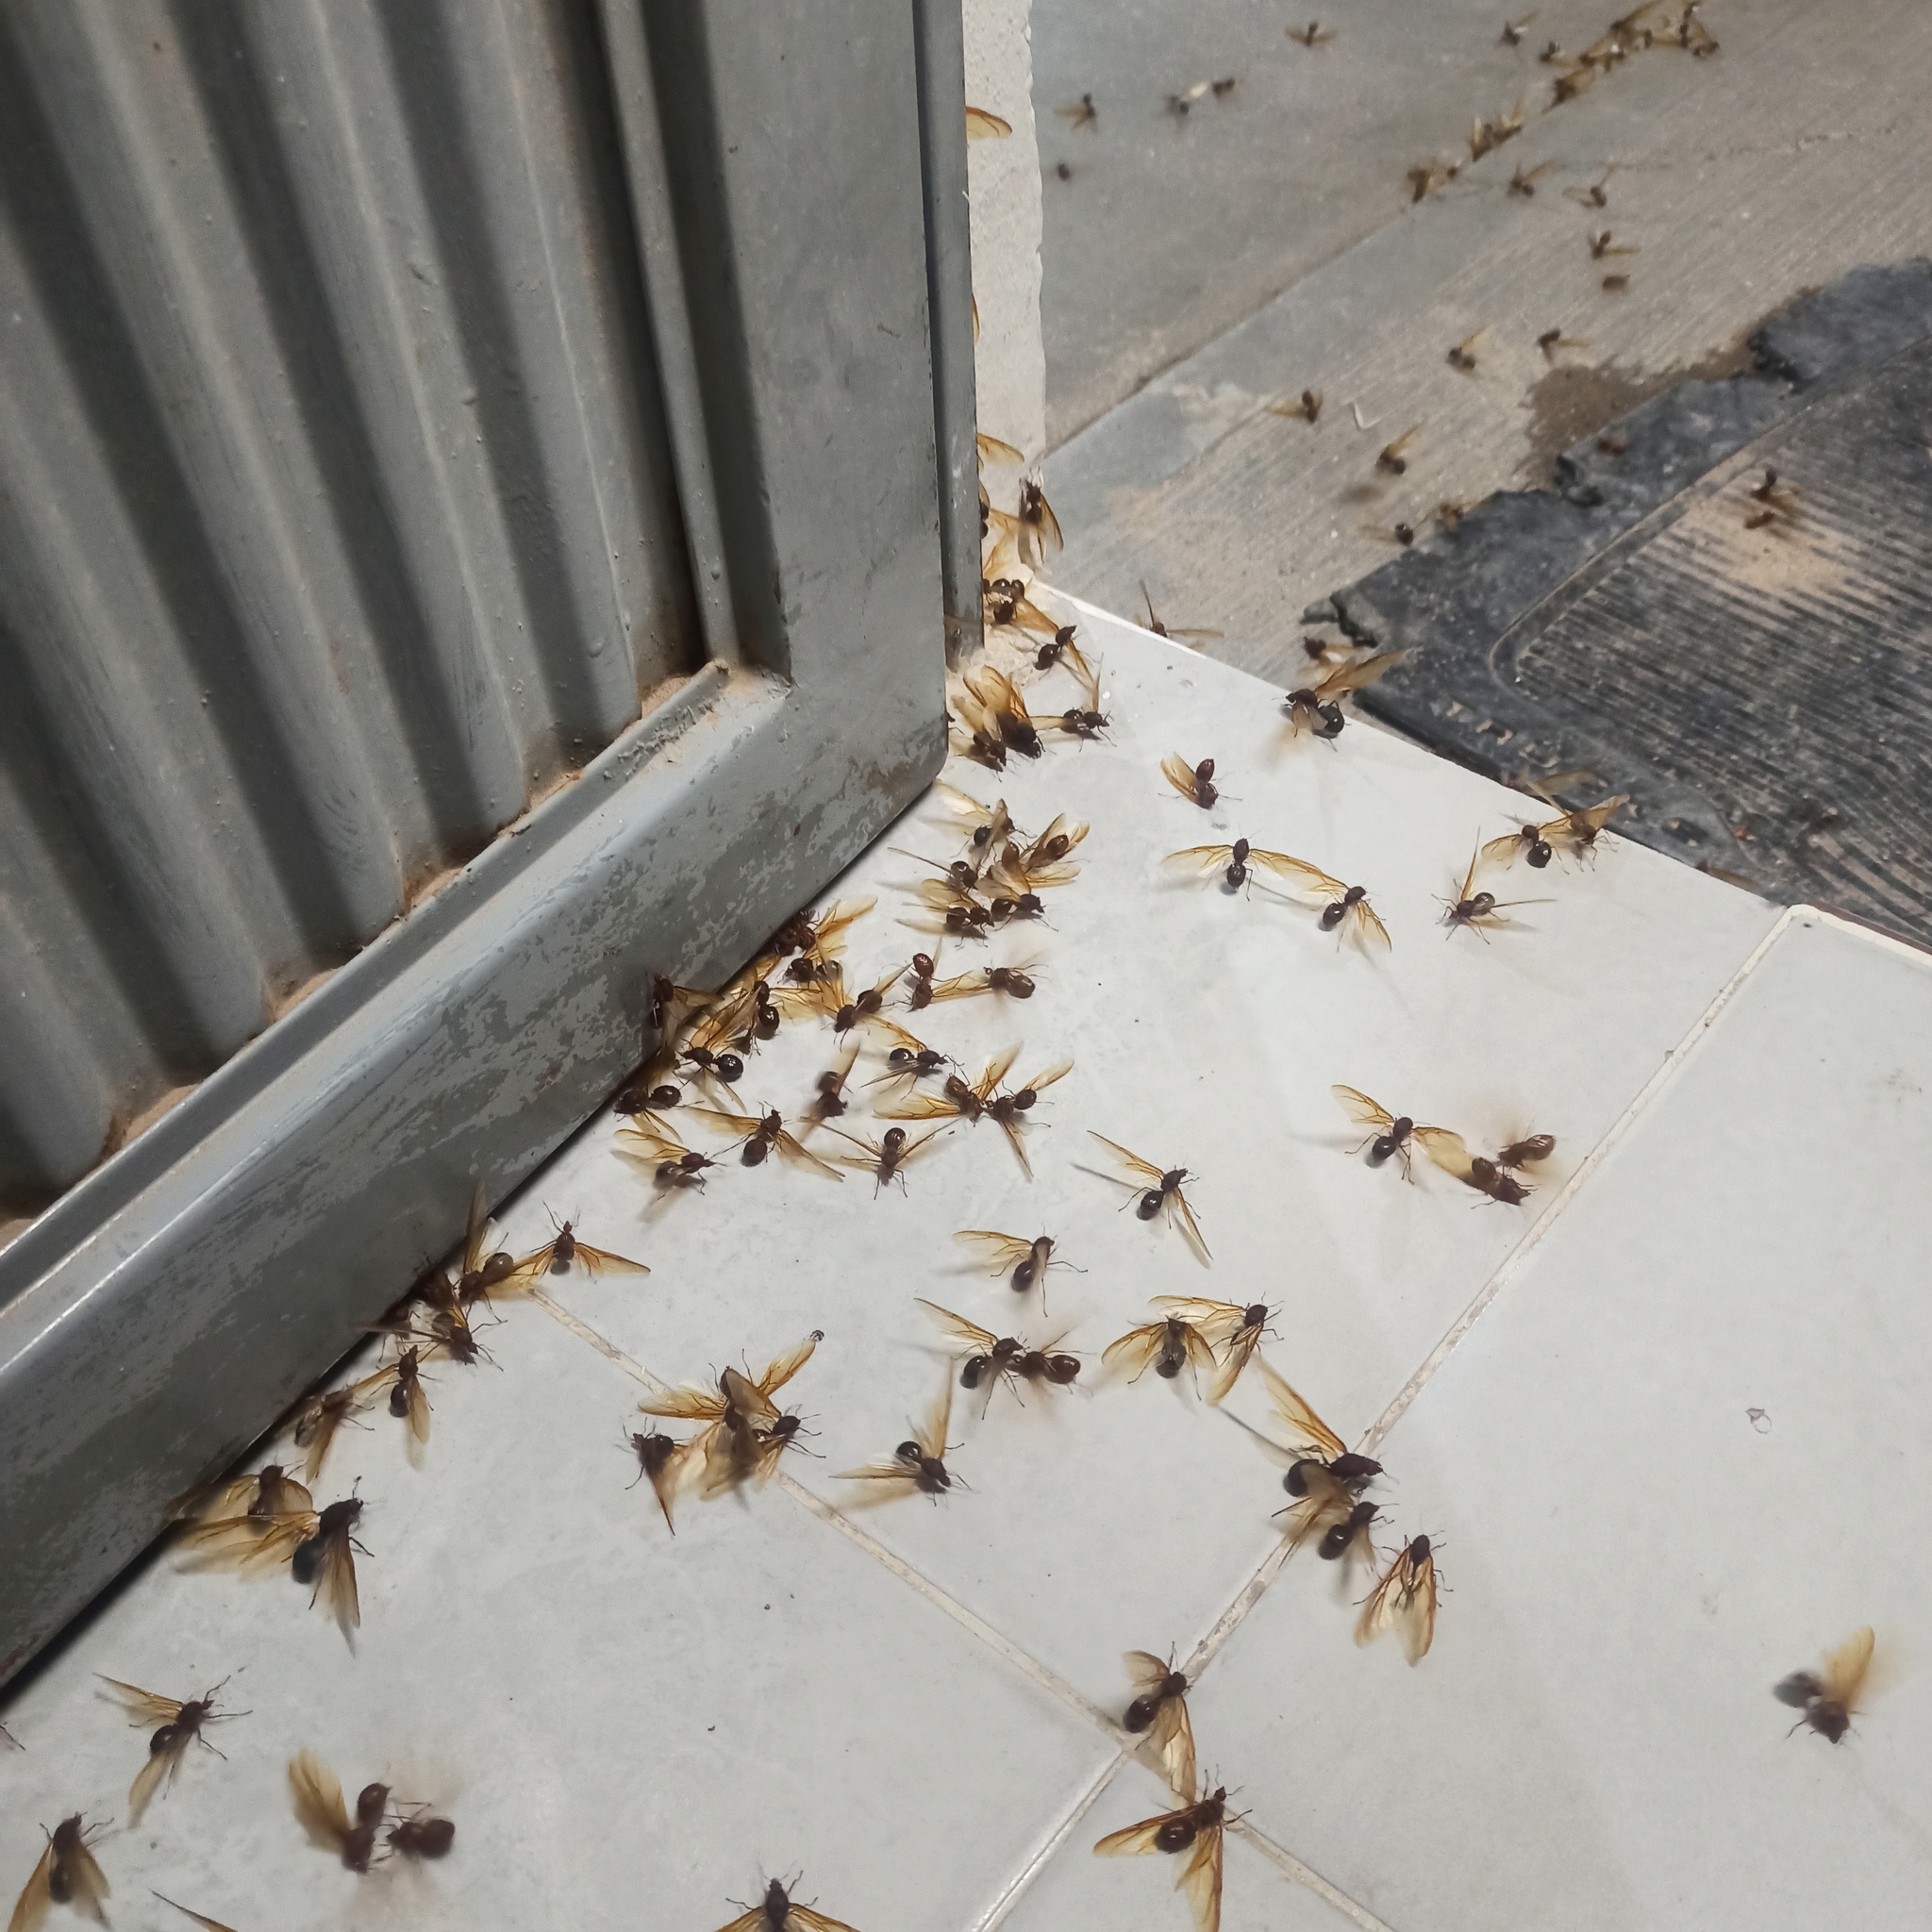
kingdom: Animalia
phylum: Arthropoda
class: Insecta
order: Hymenoptera
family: Formicidae
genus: Atta
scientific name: Atta mexicana
